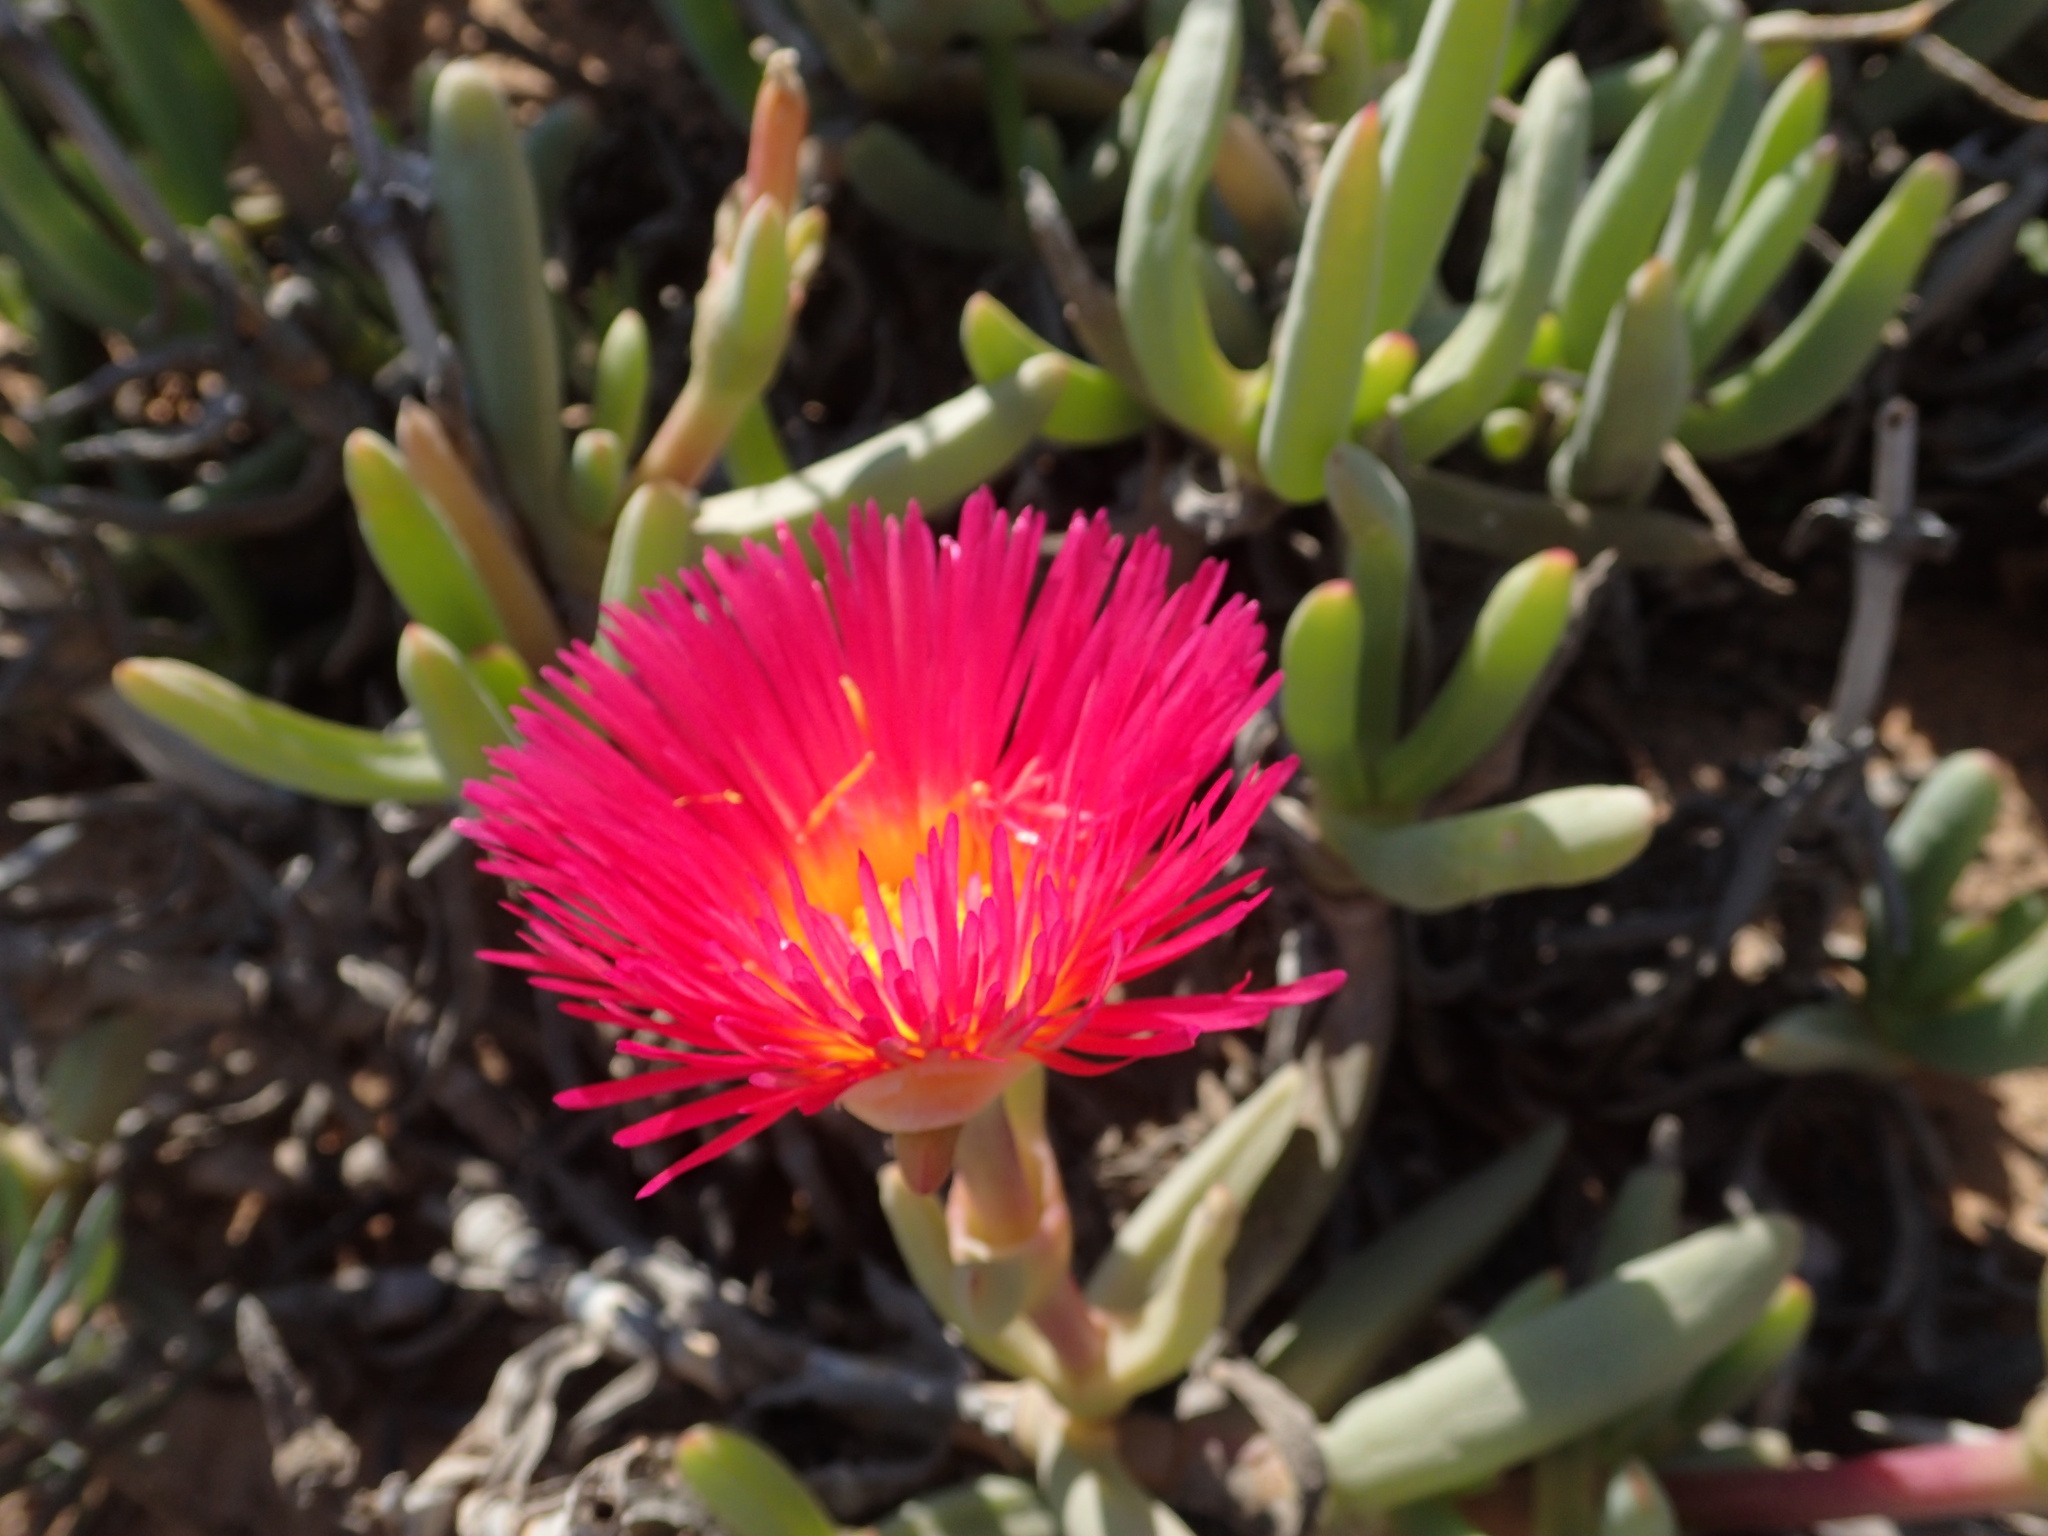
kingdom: Plantae
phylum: Tracheophyta
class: Magnoliopsida
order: Caryophyllales
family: Aizoaceae
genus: Jordaaniella
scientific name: Jordaaniella spongiosa
